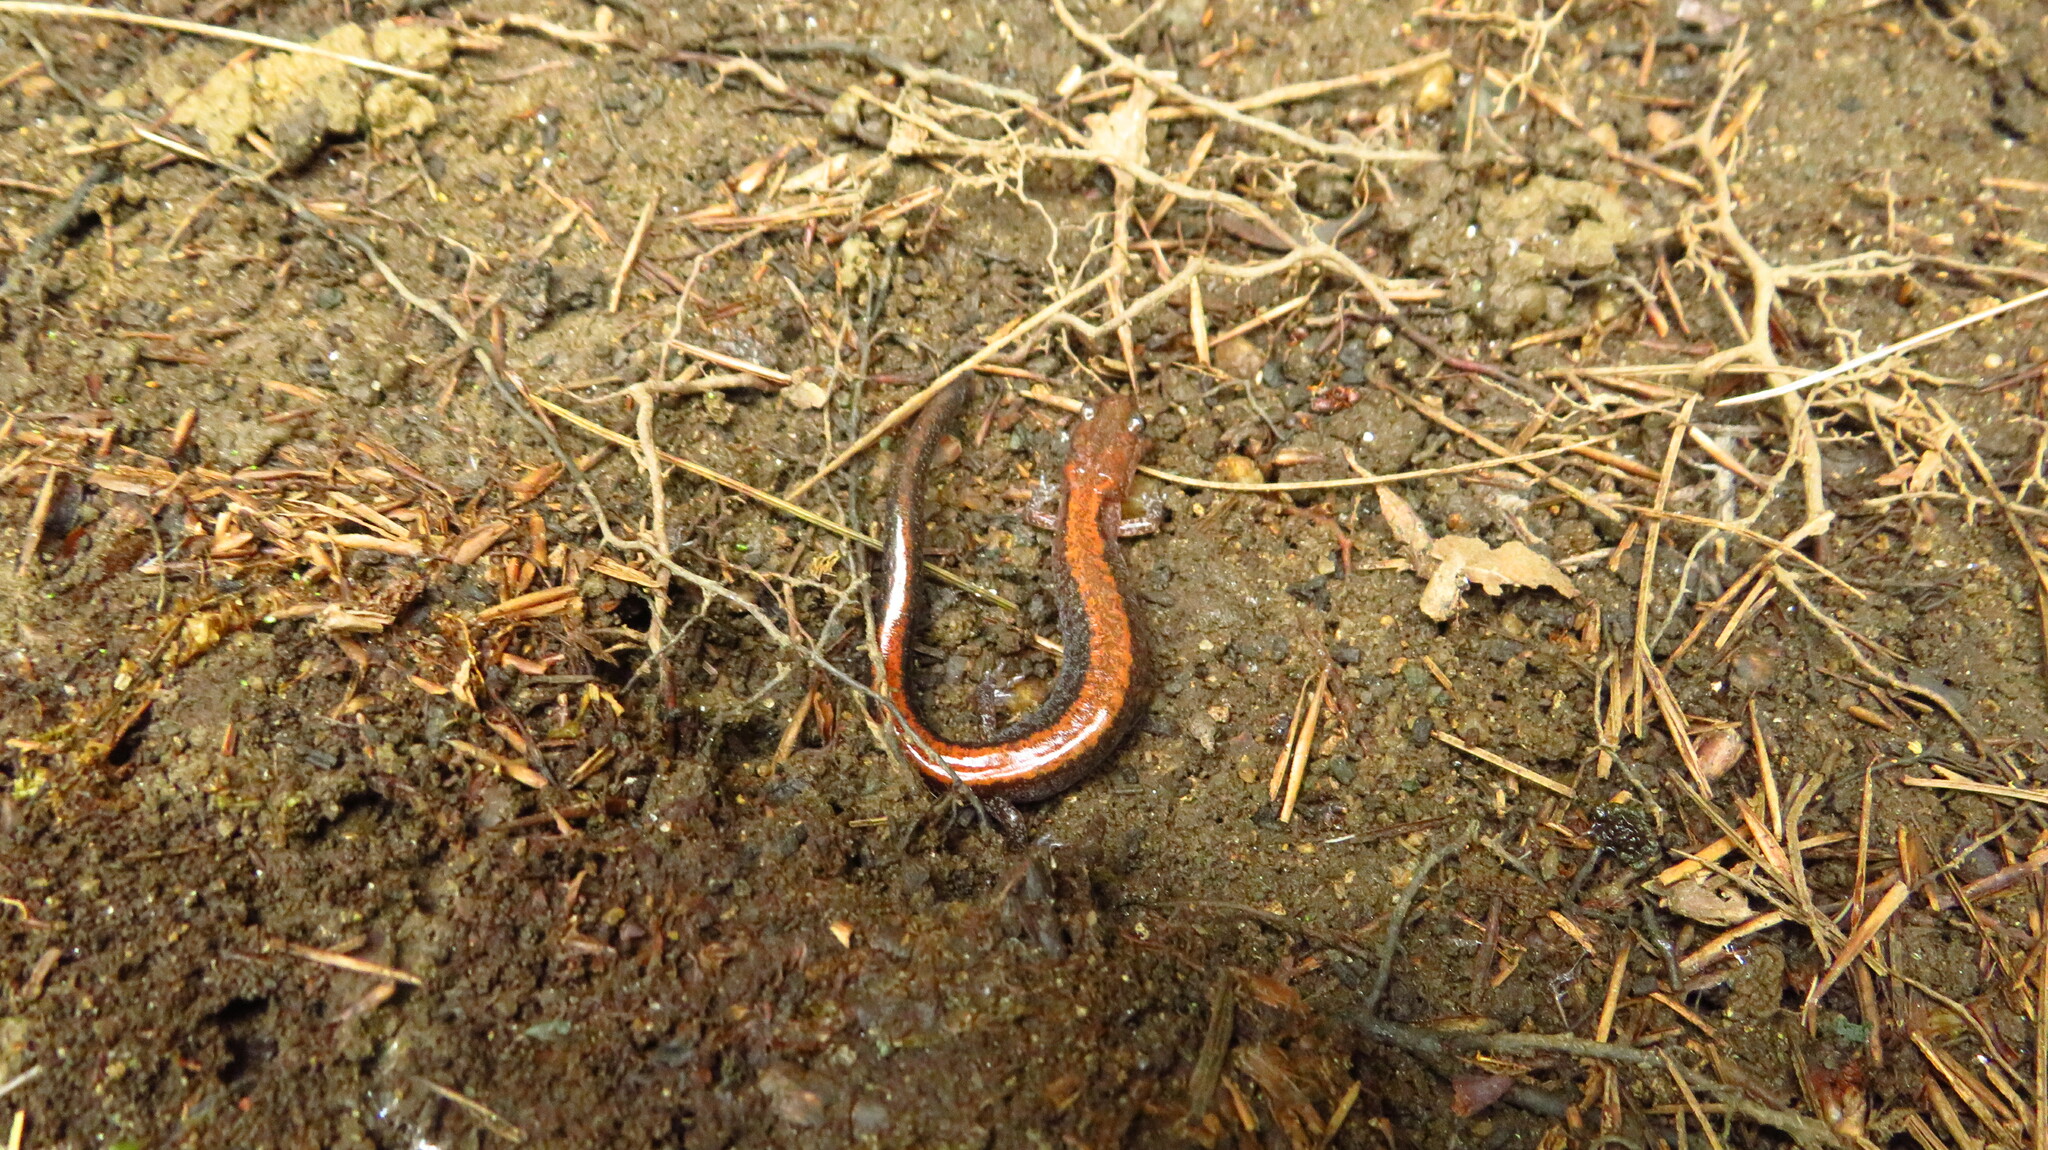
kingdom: Animalia
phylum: Chordata
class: Amphibia
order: Caudata
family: Plethodontidae
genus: Plethodon
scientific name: Plethodon cinereus
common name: Redback salamander
